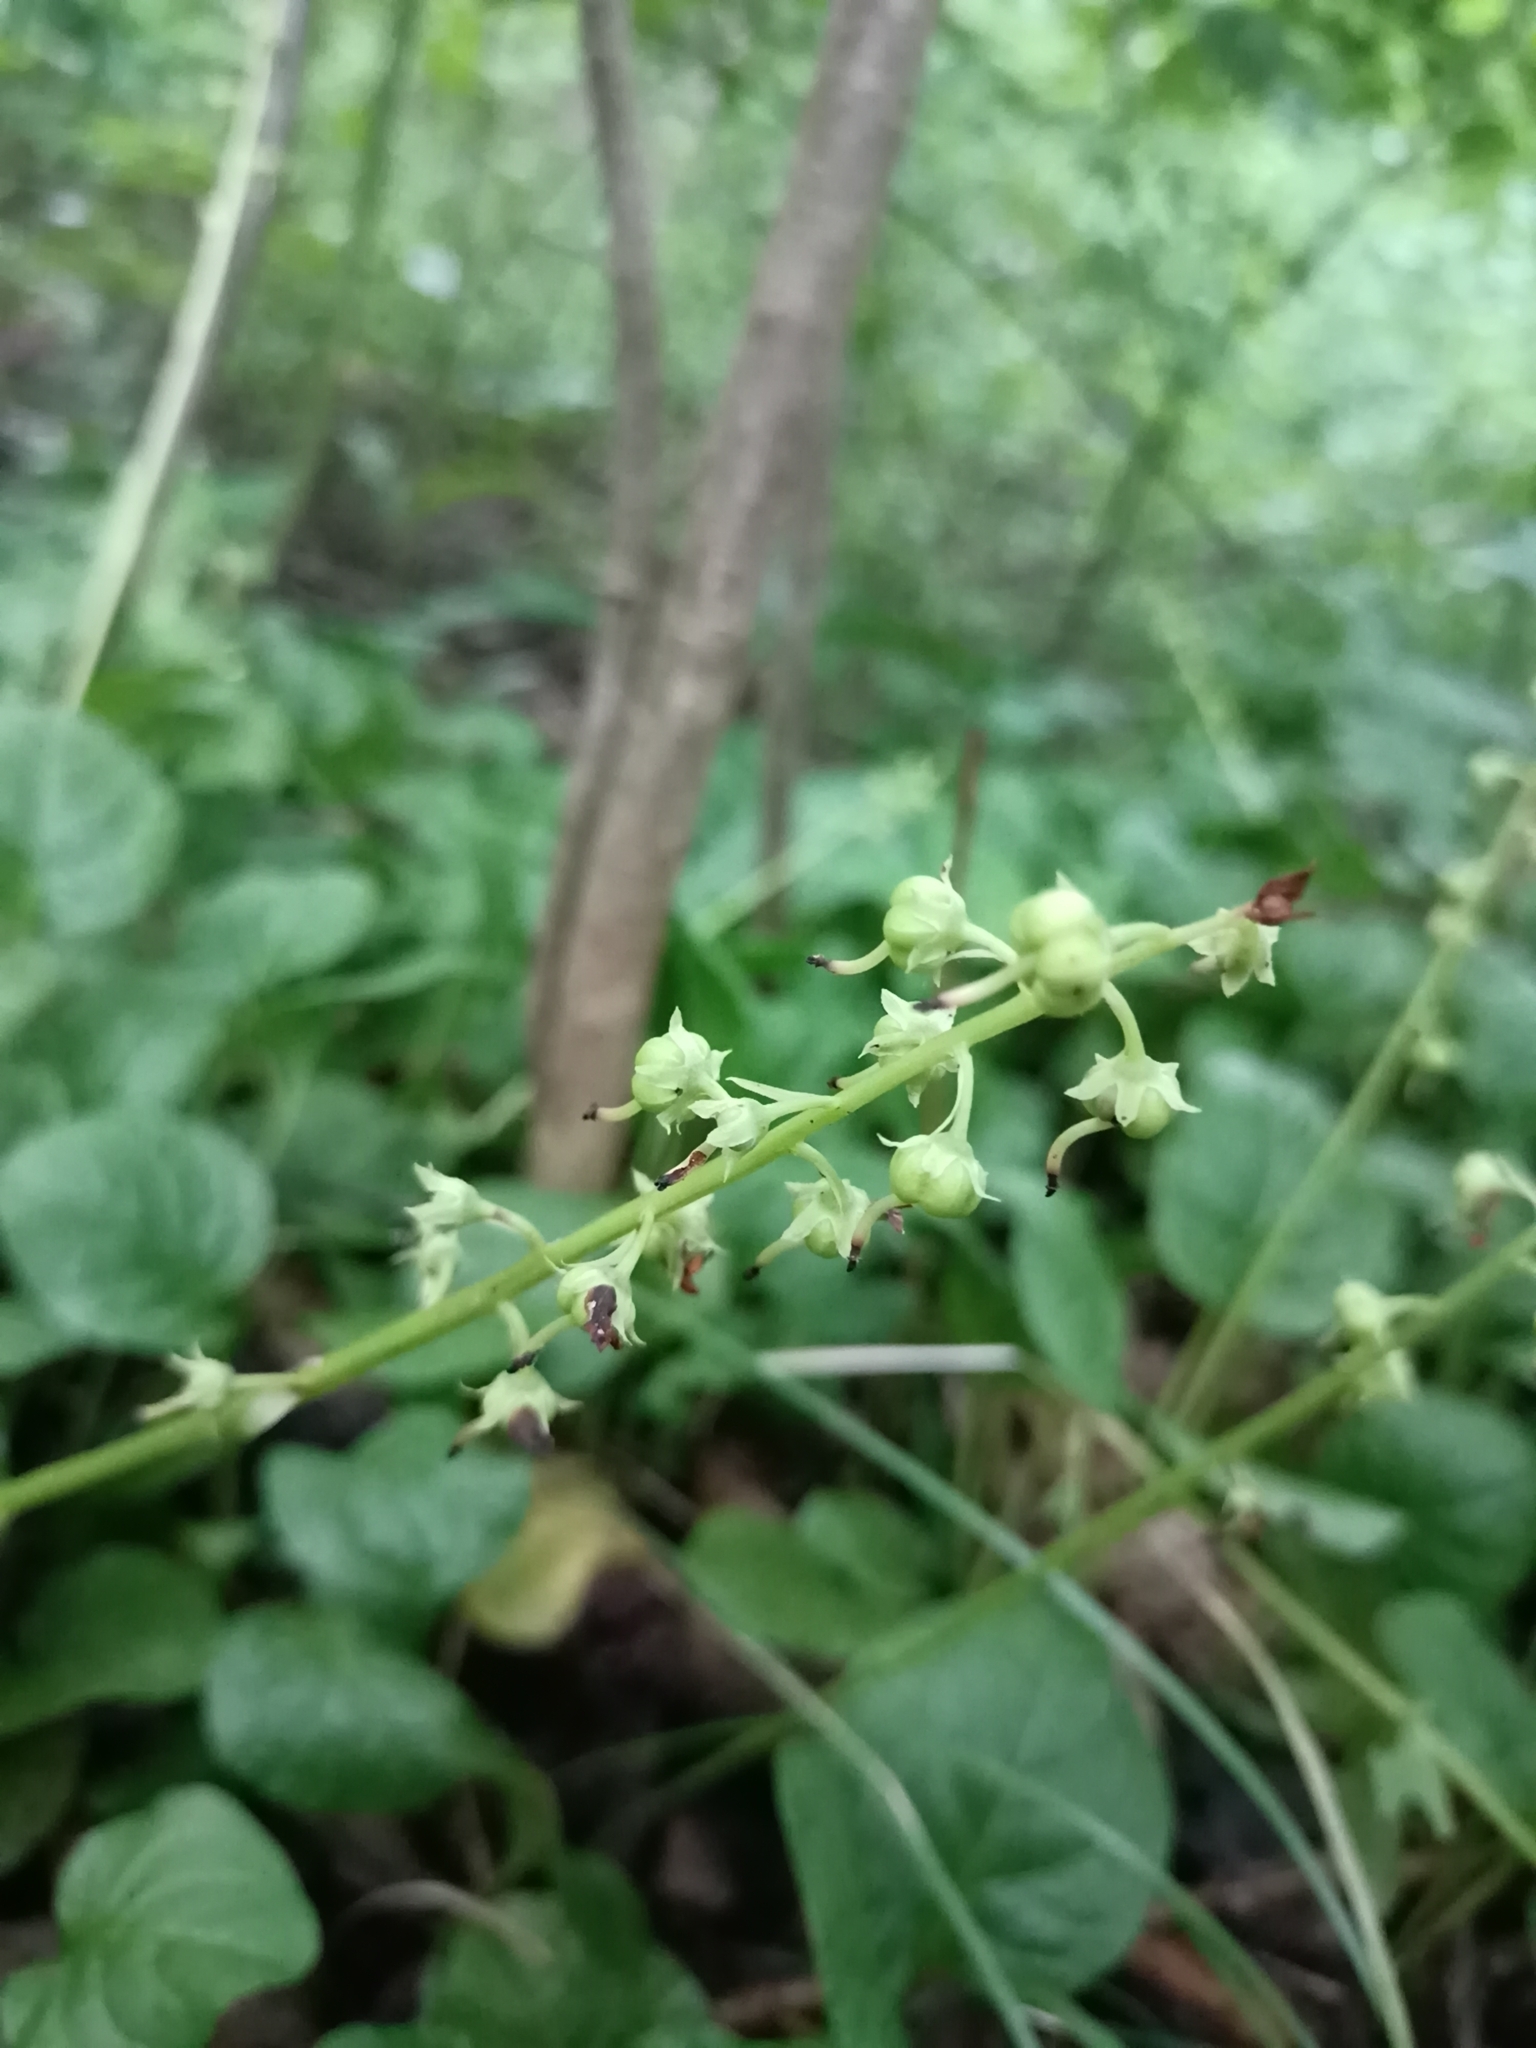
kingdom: Plantae
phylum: Tracheophyta
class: Magnoliopsida
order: Ericales
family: Ericaceae
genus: Pyrola
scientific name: Pyrola rotundifolia
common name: Round-leaved wintergreen
